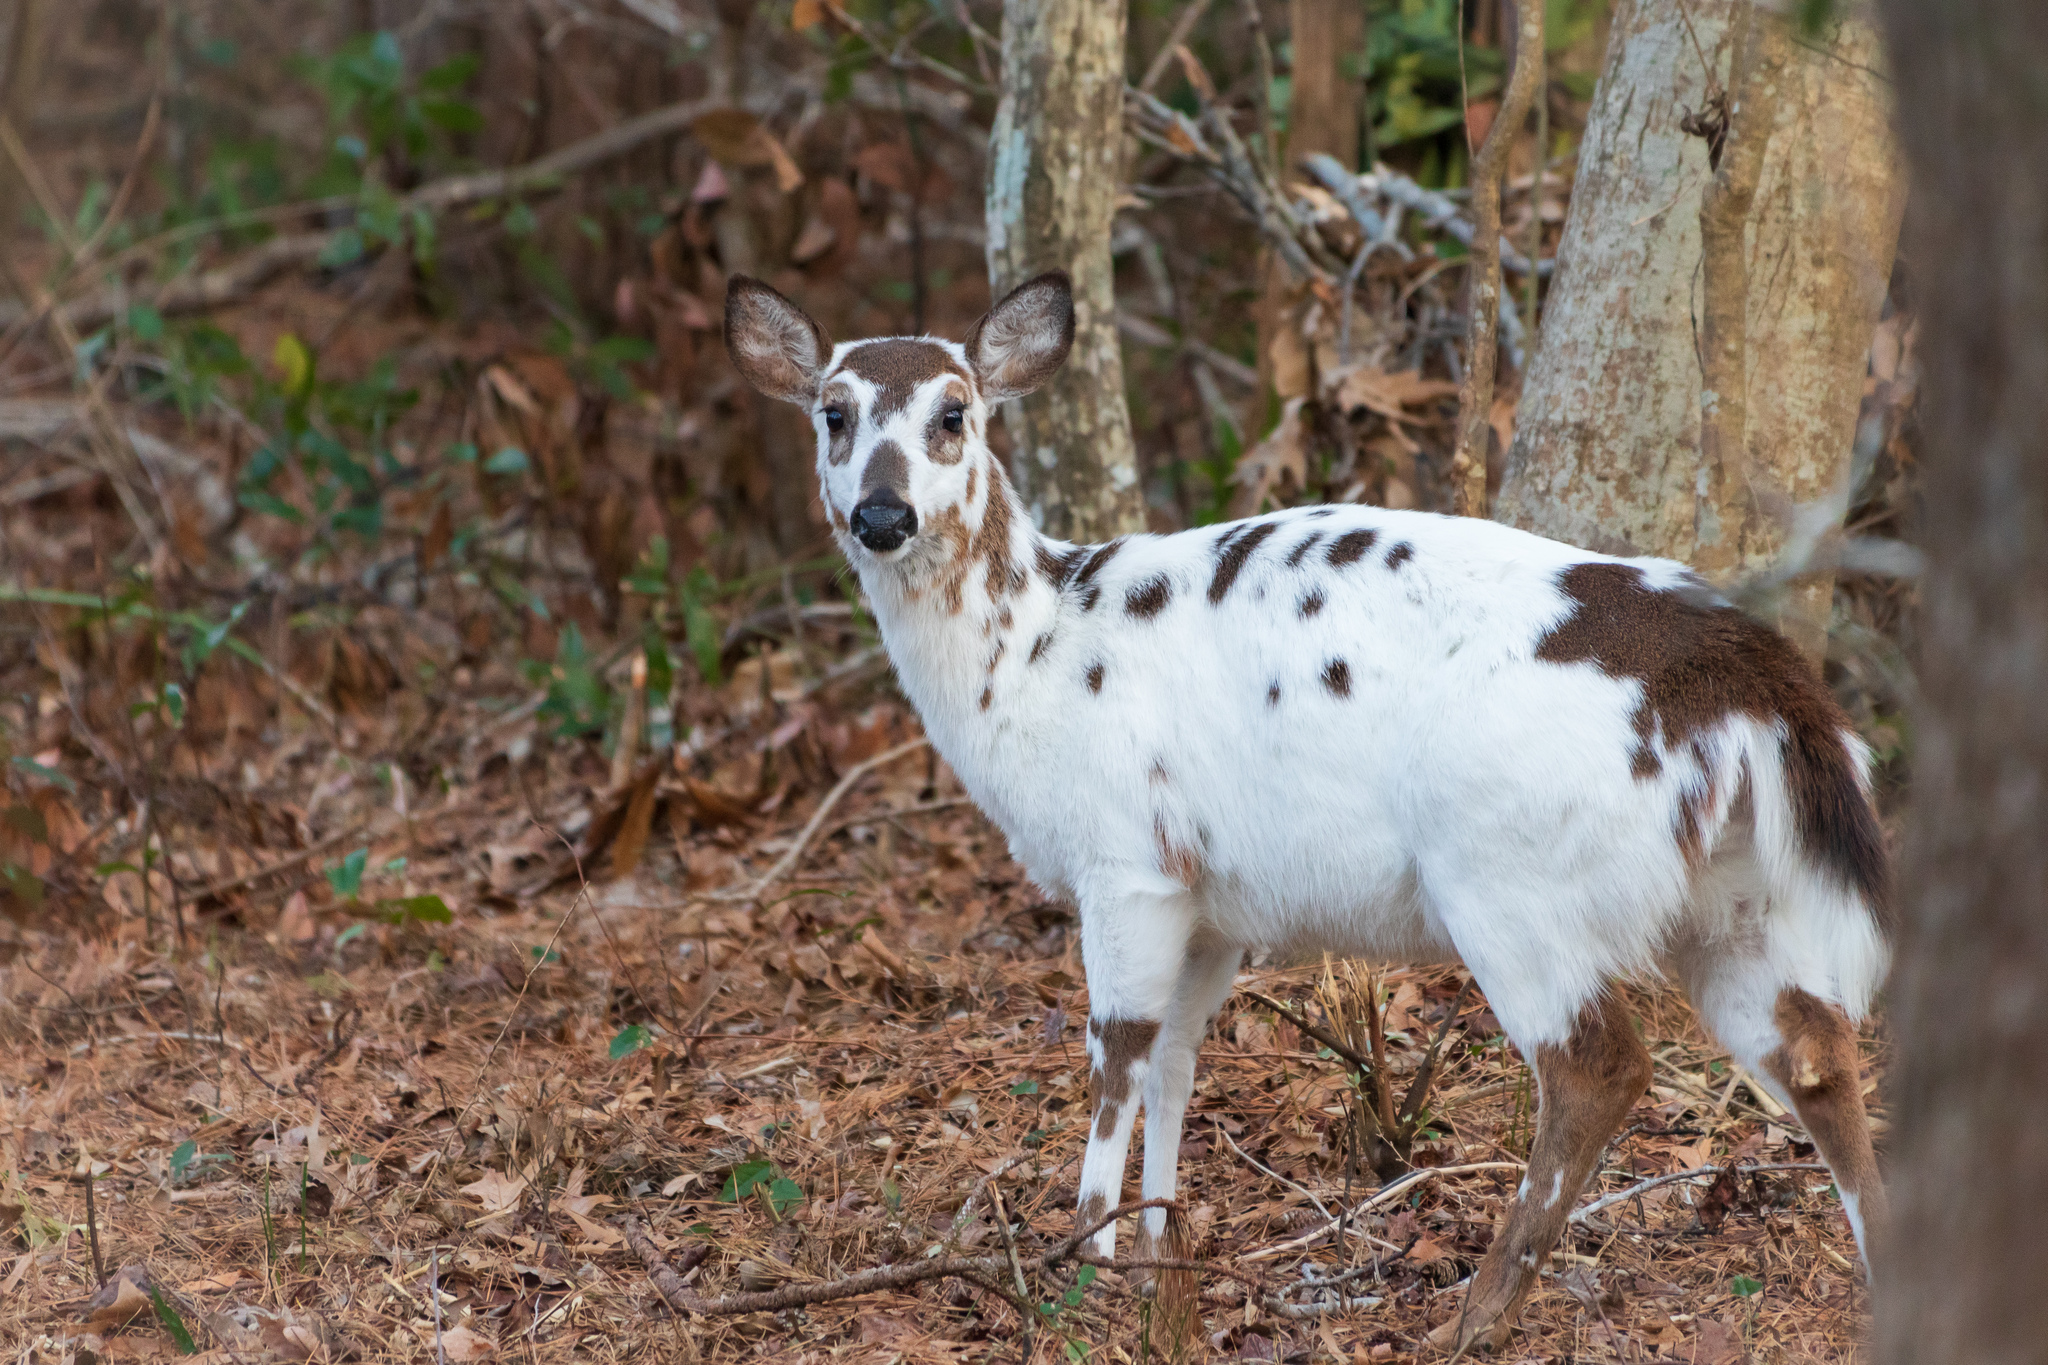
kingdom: Animalia
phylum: Chordata
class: Mammalia
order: Artiodactyla
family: Cervidae
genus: Odocoileus
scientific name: Odocoileus virginianus
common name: White-tailed deer
